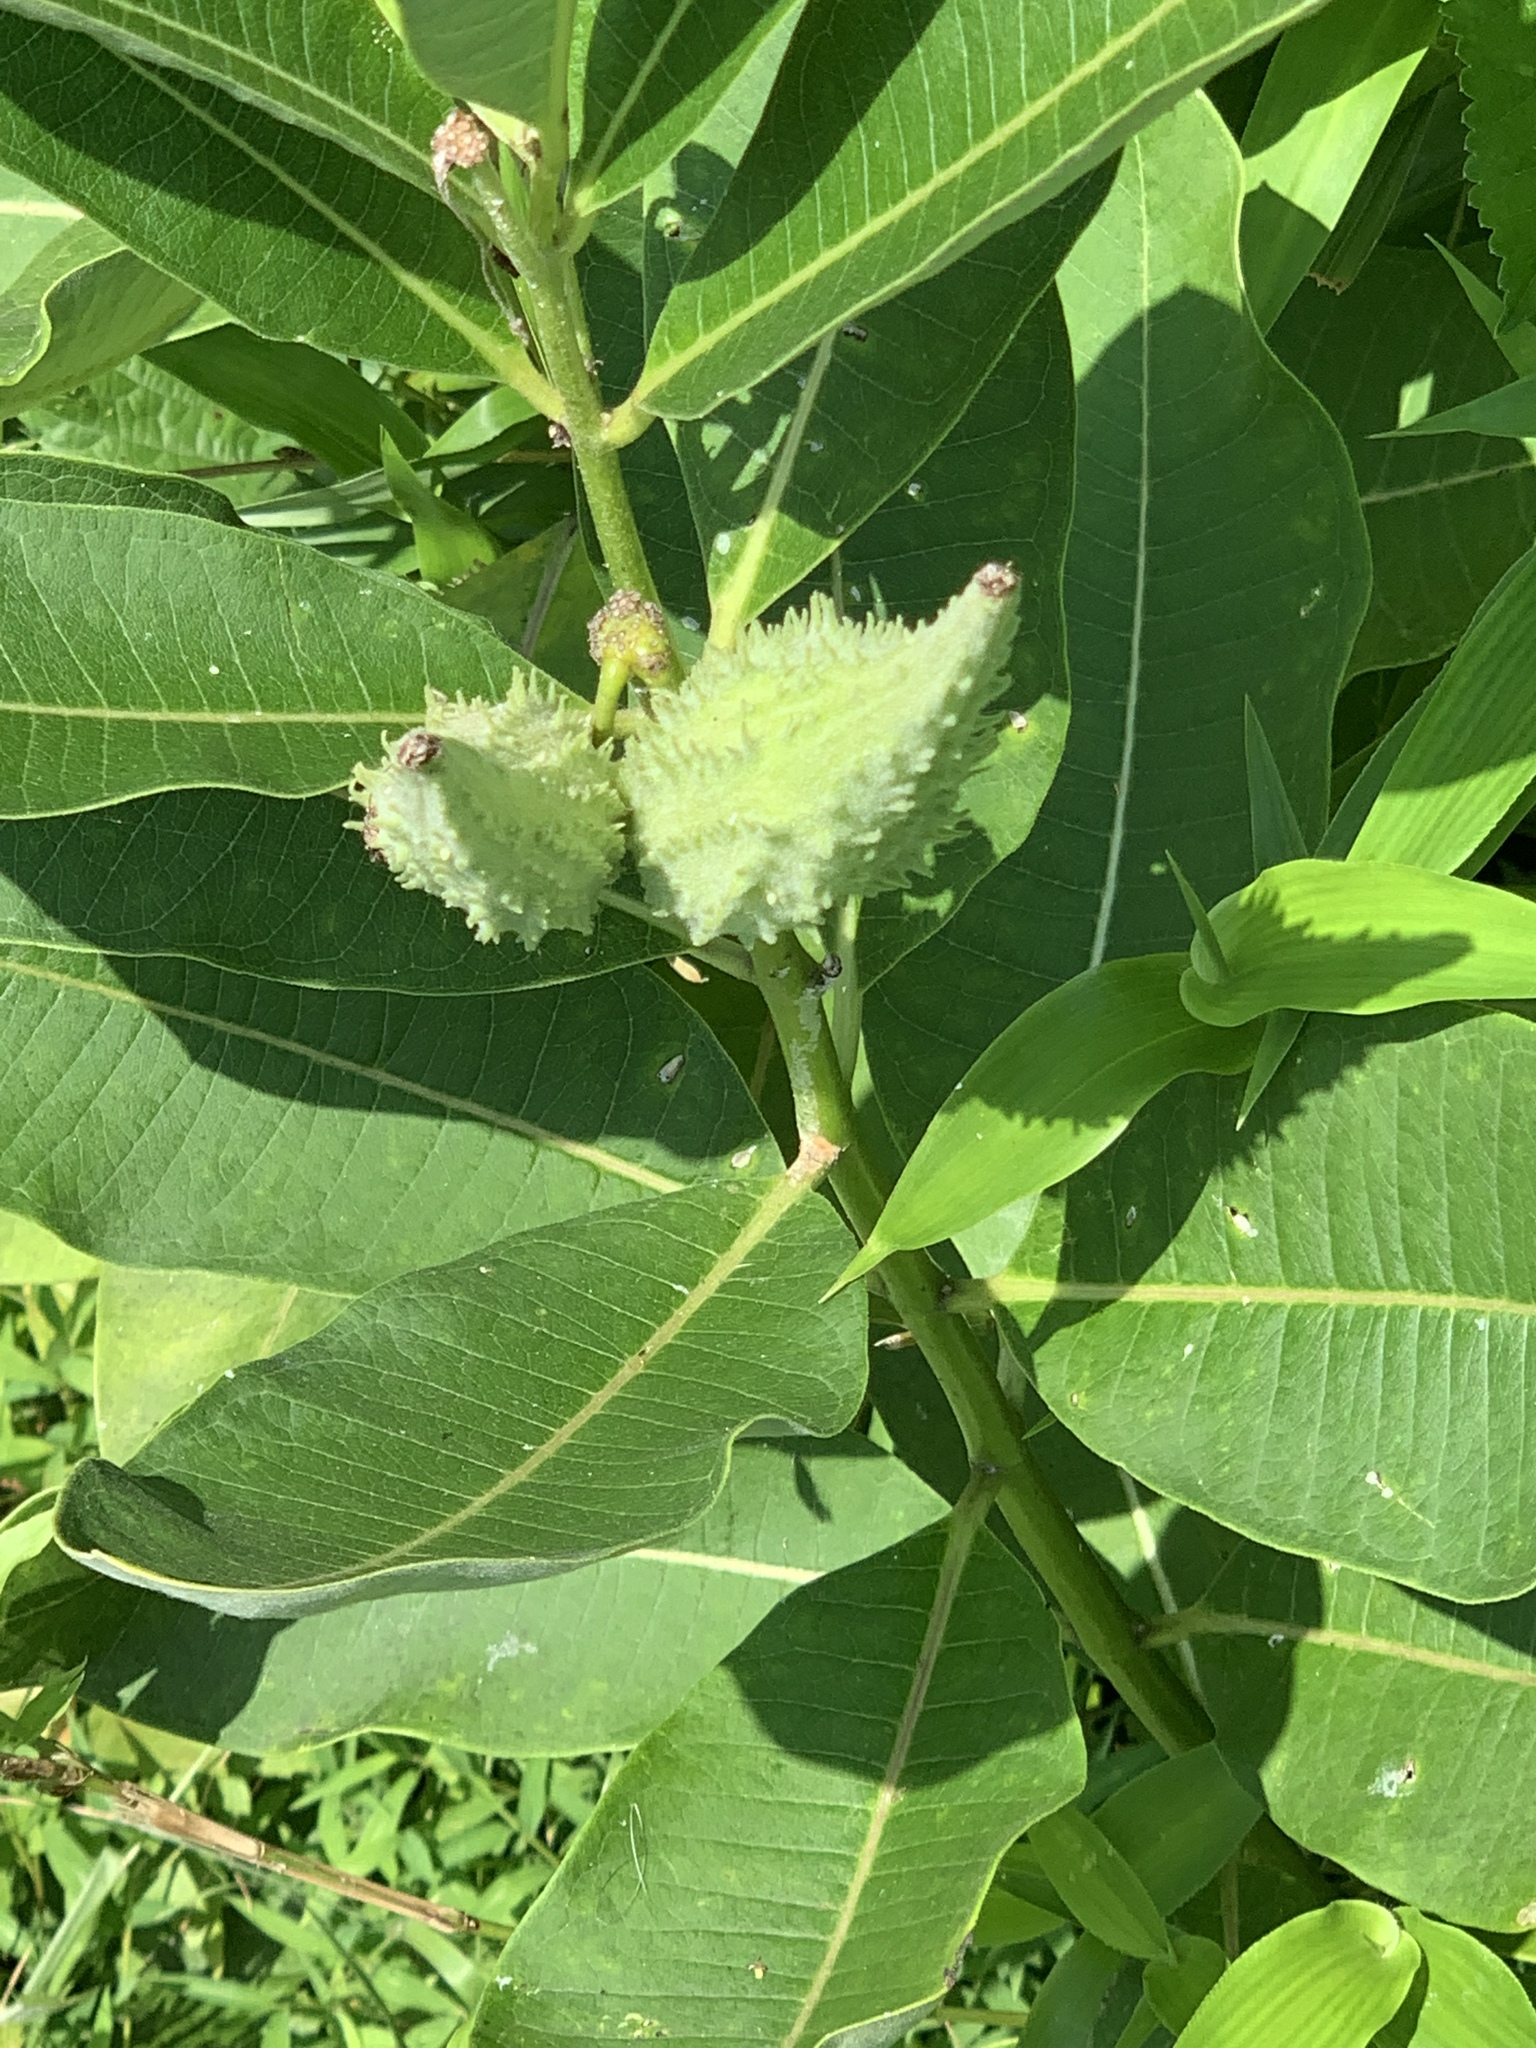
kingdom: Plantae
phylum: Tracheophyta
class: Magnoliopsida
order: Gentianales
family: Apocynaceae
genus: Asclepias
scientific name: Asclepias syriaca
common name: Common milkweed
